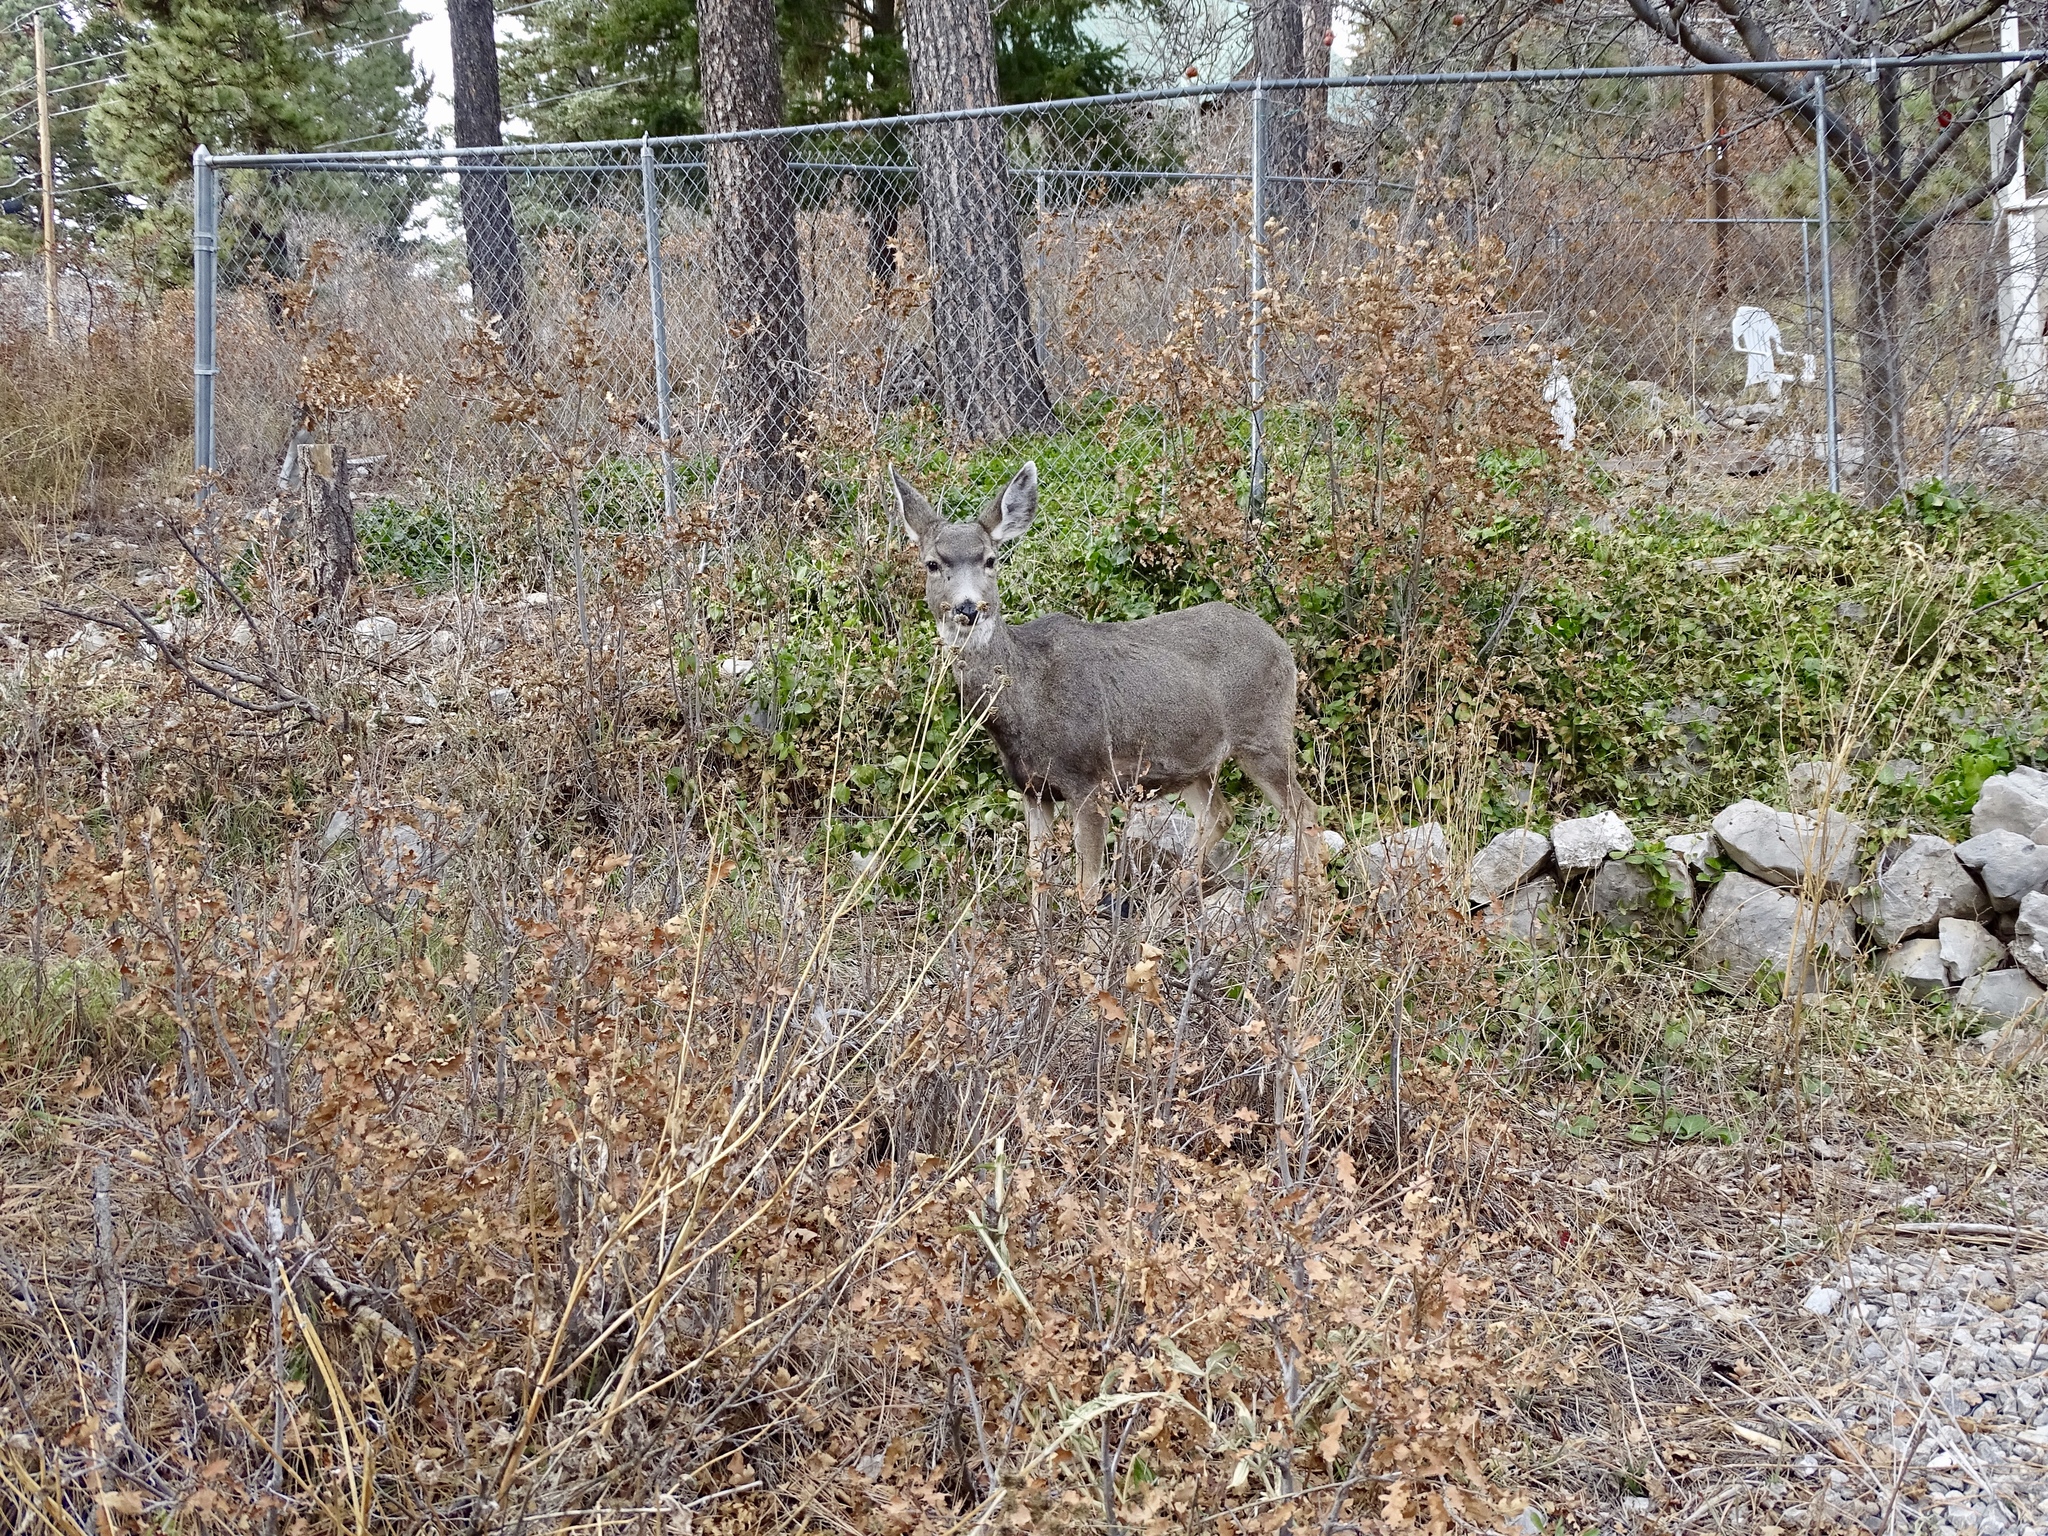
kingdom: Animalia
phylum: Chordata
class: Mammalia
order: Artiodactyla
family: Cervidae
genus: Odocoileus
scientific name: Odocoileus hemionus
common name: Mule deer
